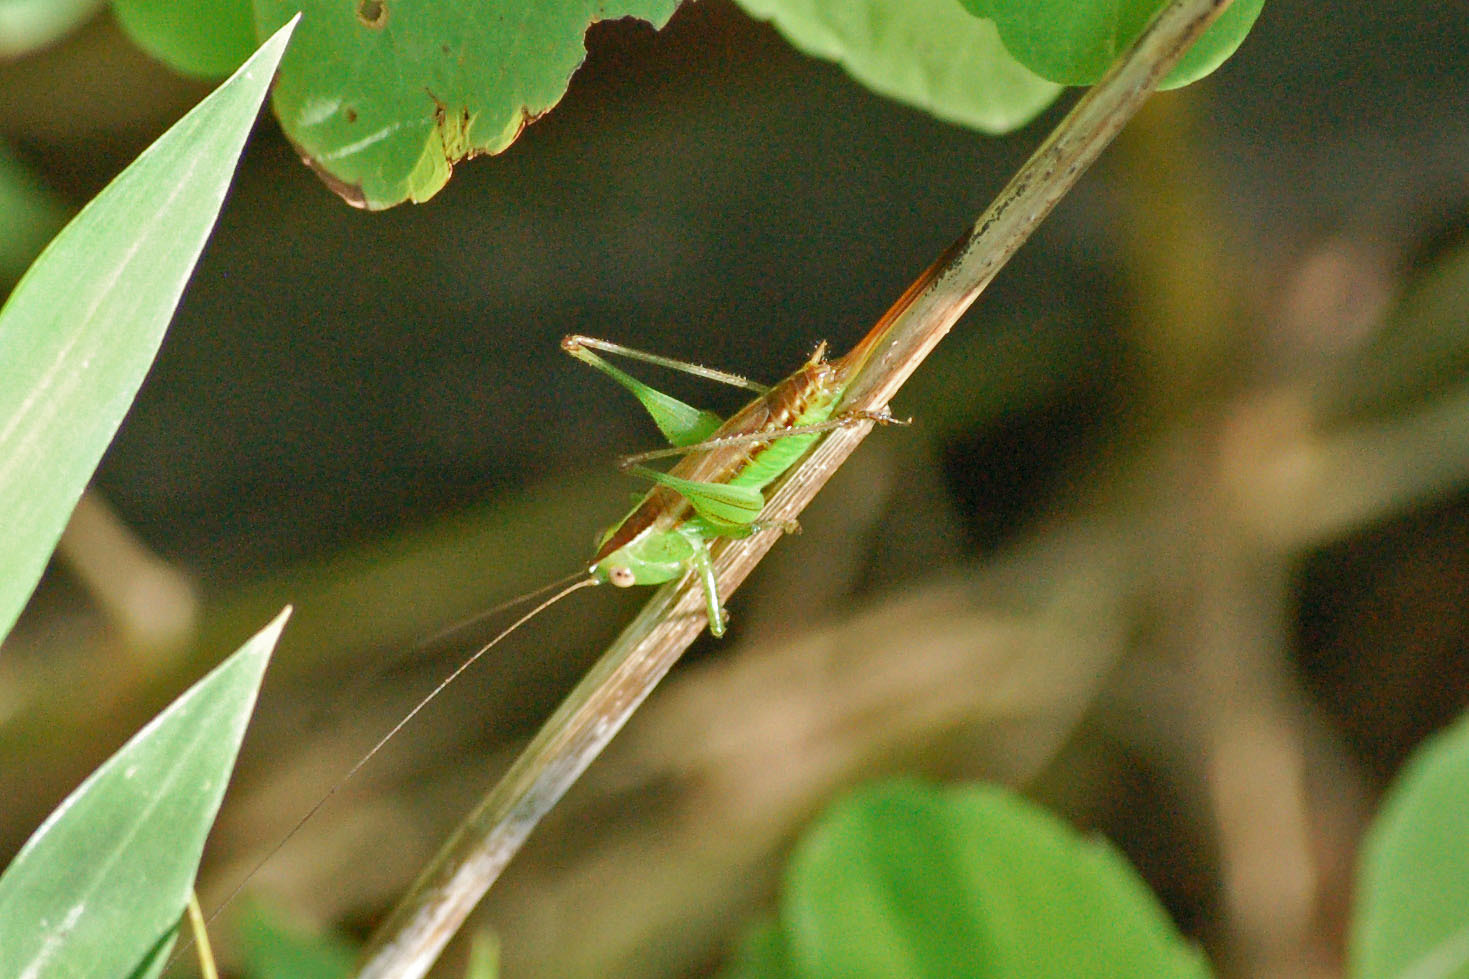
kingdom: Animalia
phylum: Arthropoda
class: Insecta
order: Orthoptera
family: Tettigoniidae
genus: Conocephalus
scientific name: Conocephalus brevipennis
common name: Short-winged meadow katydid
